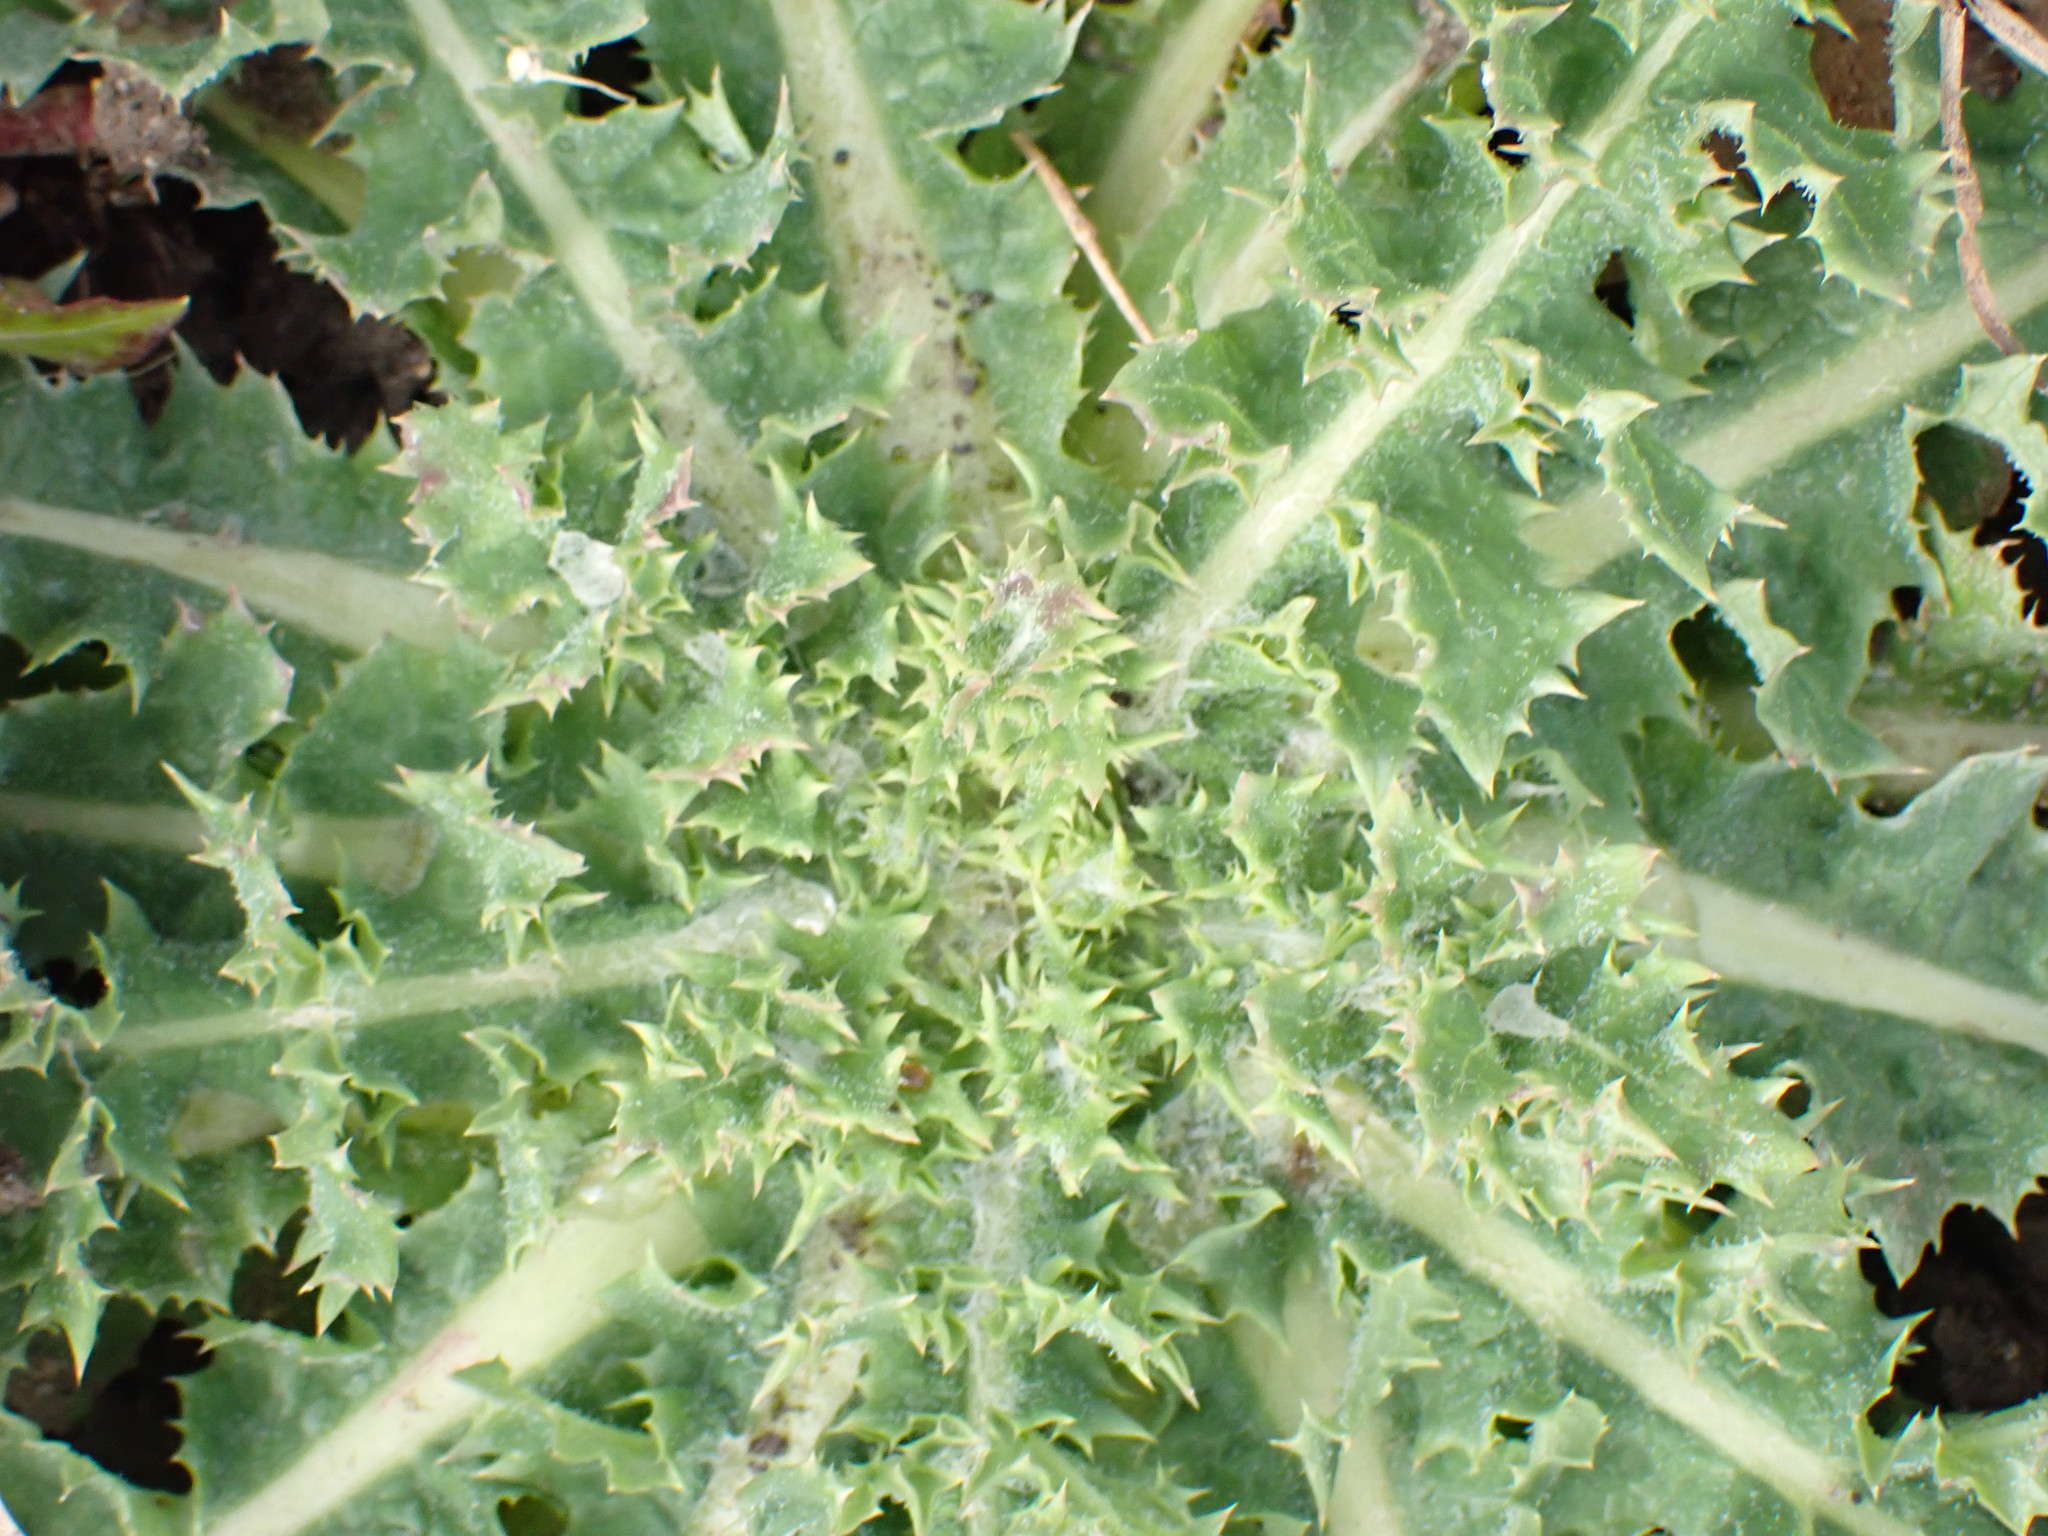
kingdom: Plantae
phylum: Tracheophyta
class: Magnoliopsida
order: Asterales
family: Asteraceae
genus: Sonchus
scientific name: Sonchus asper
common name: Prickly sow-thistle
